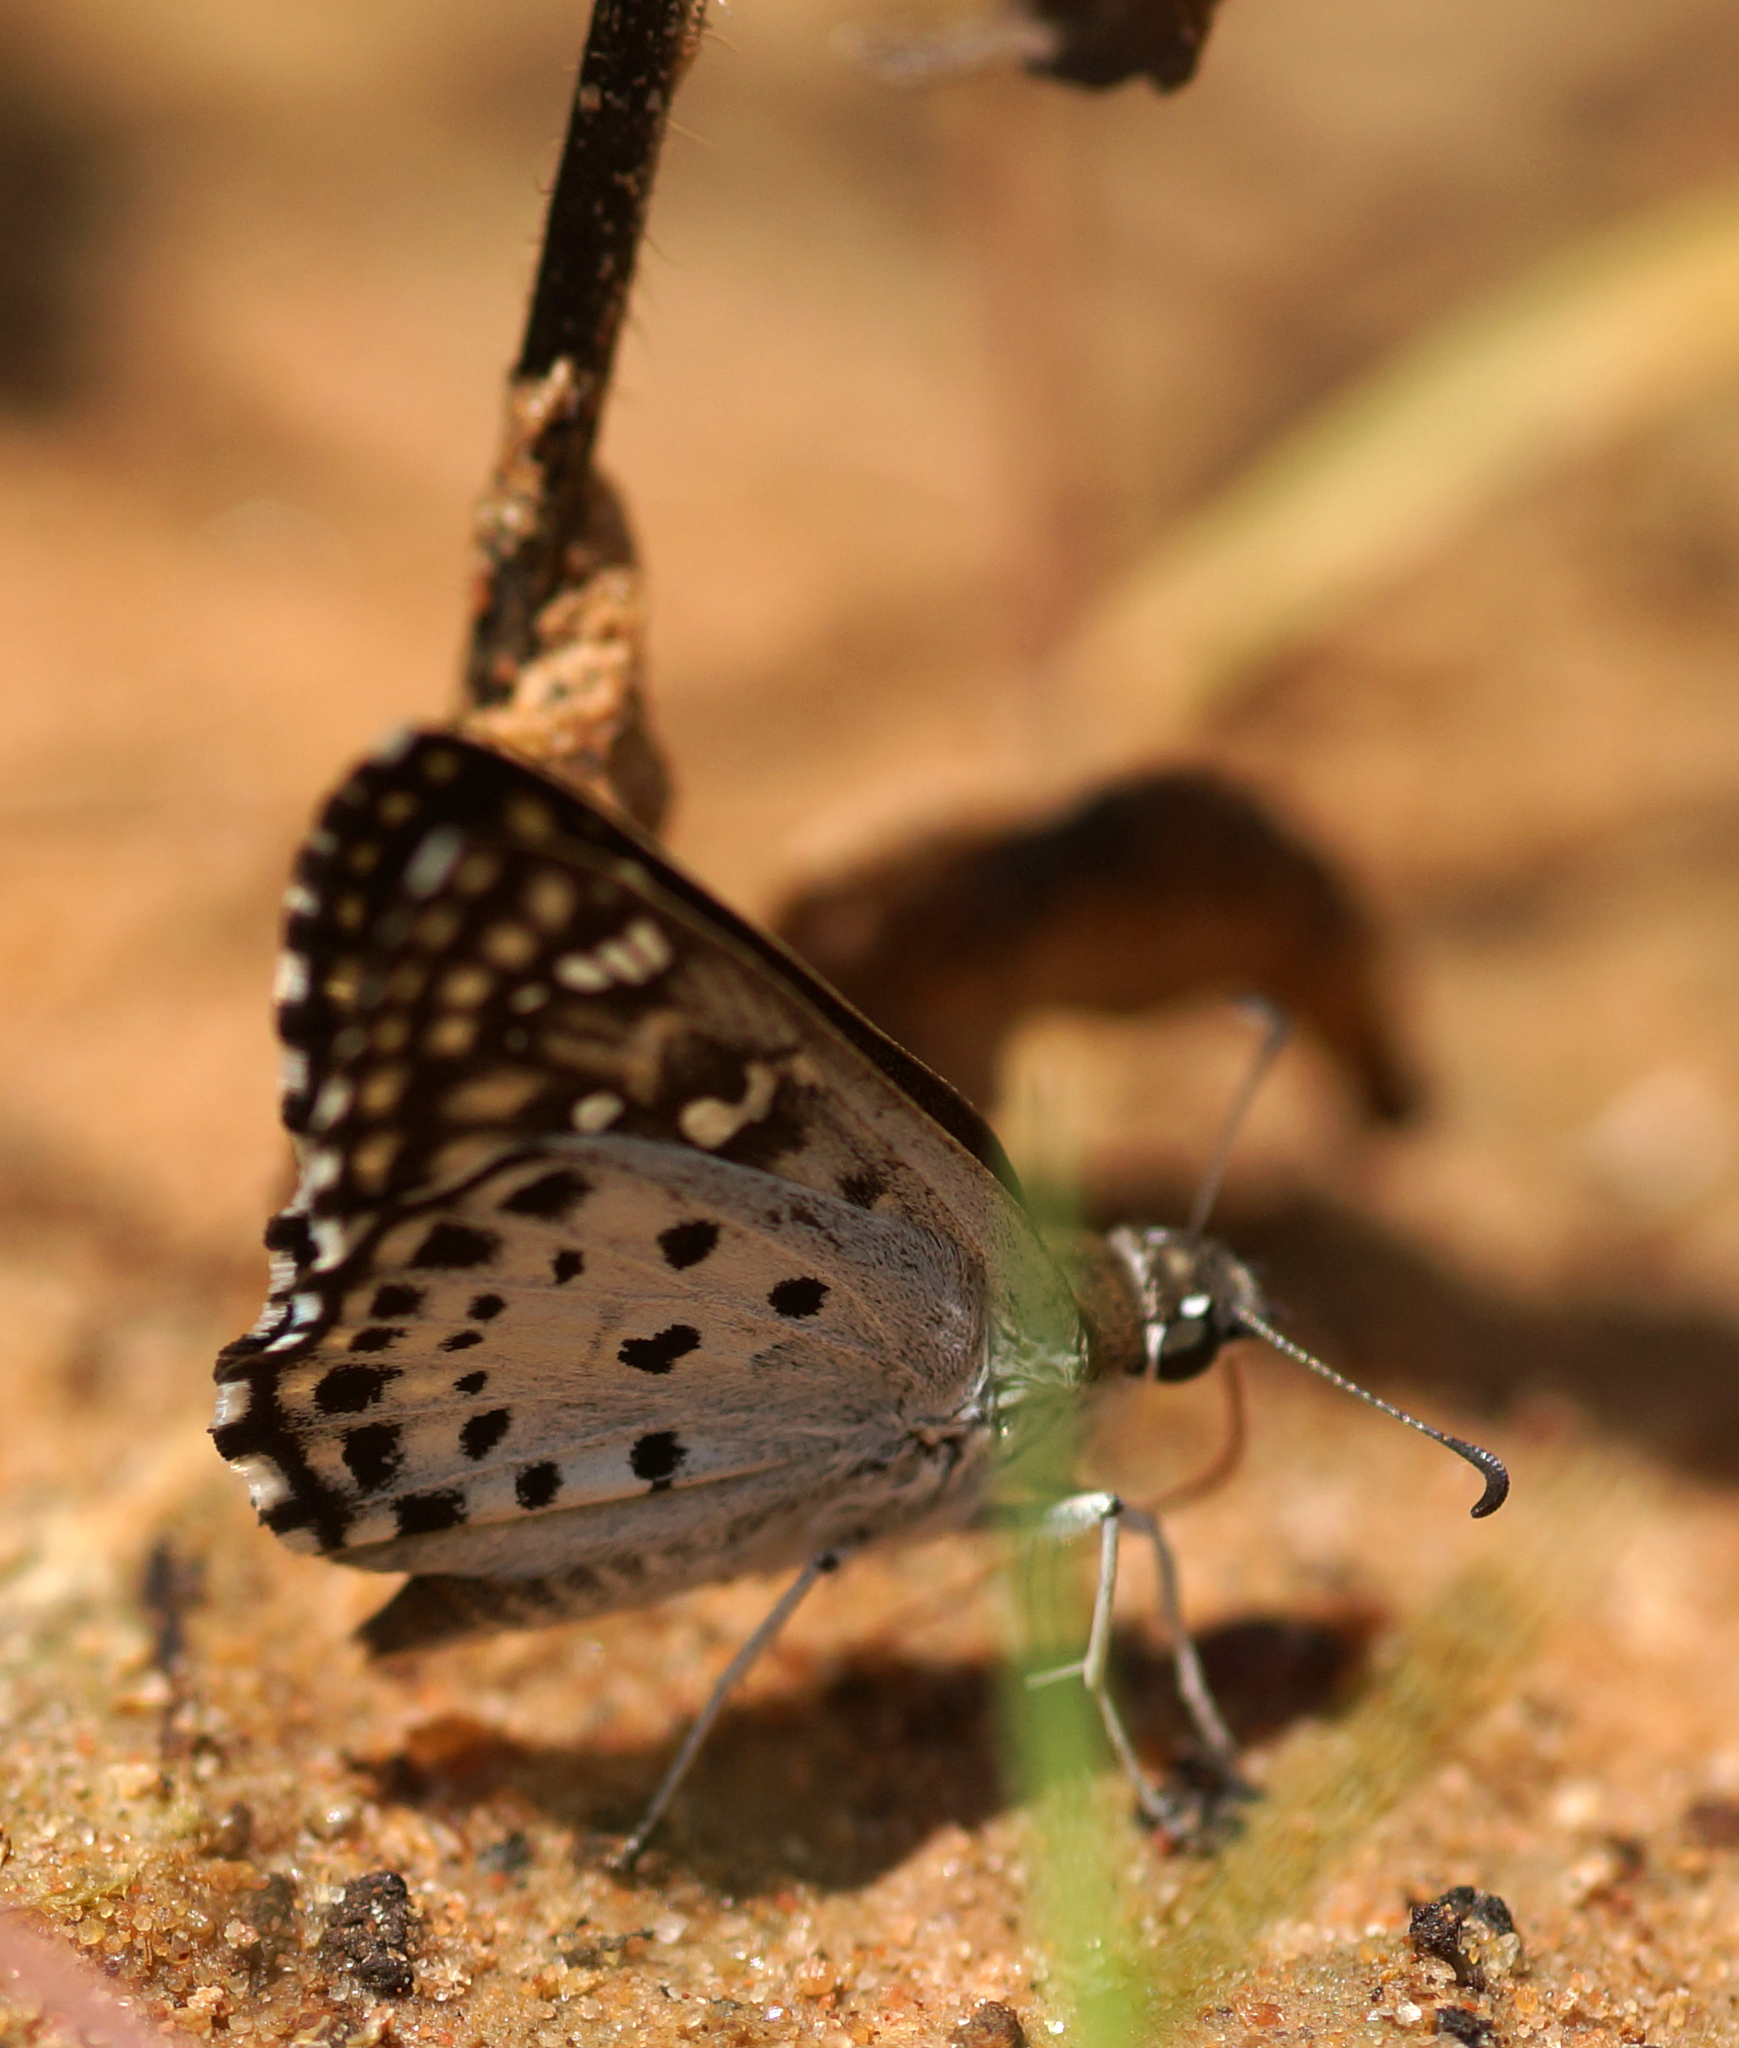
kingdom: Animalia
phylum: Arthropoda
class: Insecta
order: Lepidoptera
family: Hesperiidae
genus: Caprona
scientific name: Caprona agama
